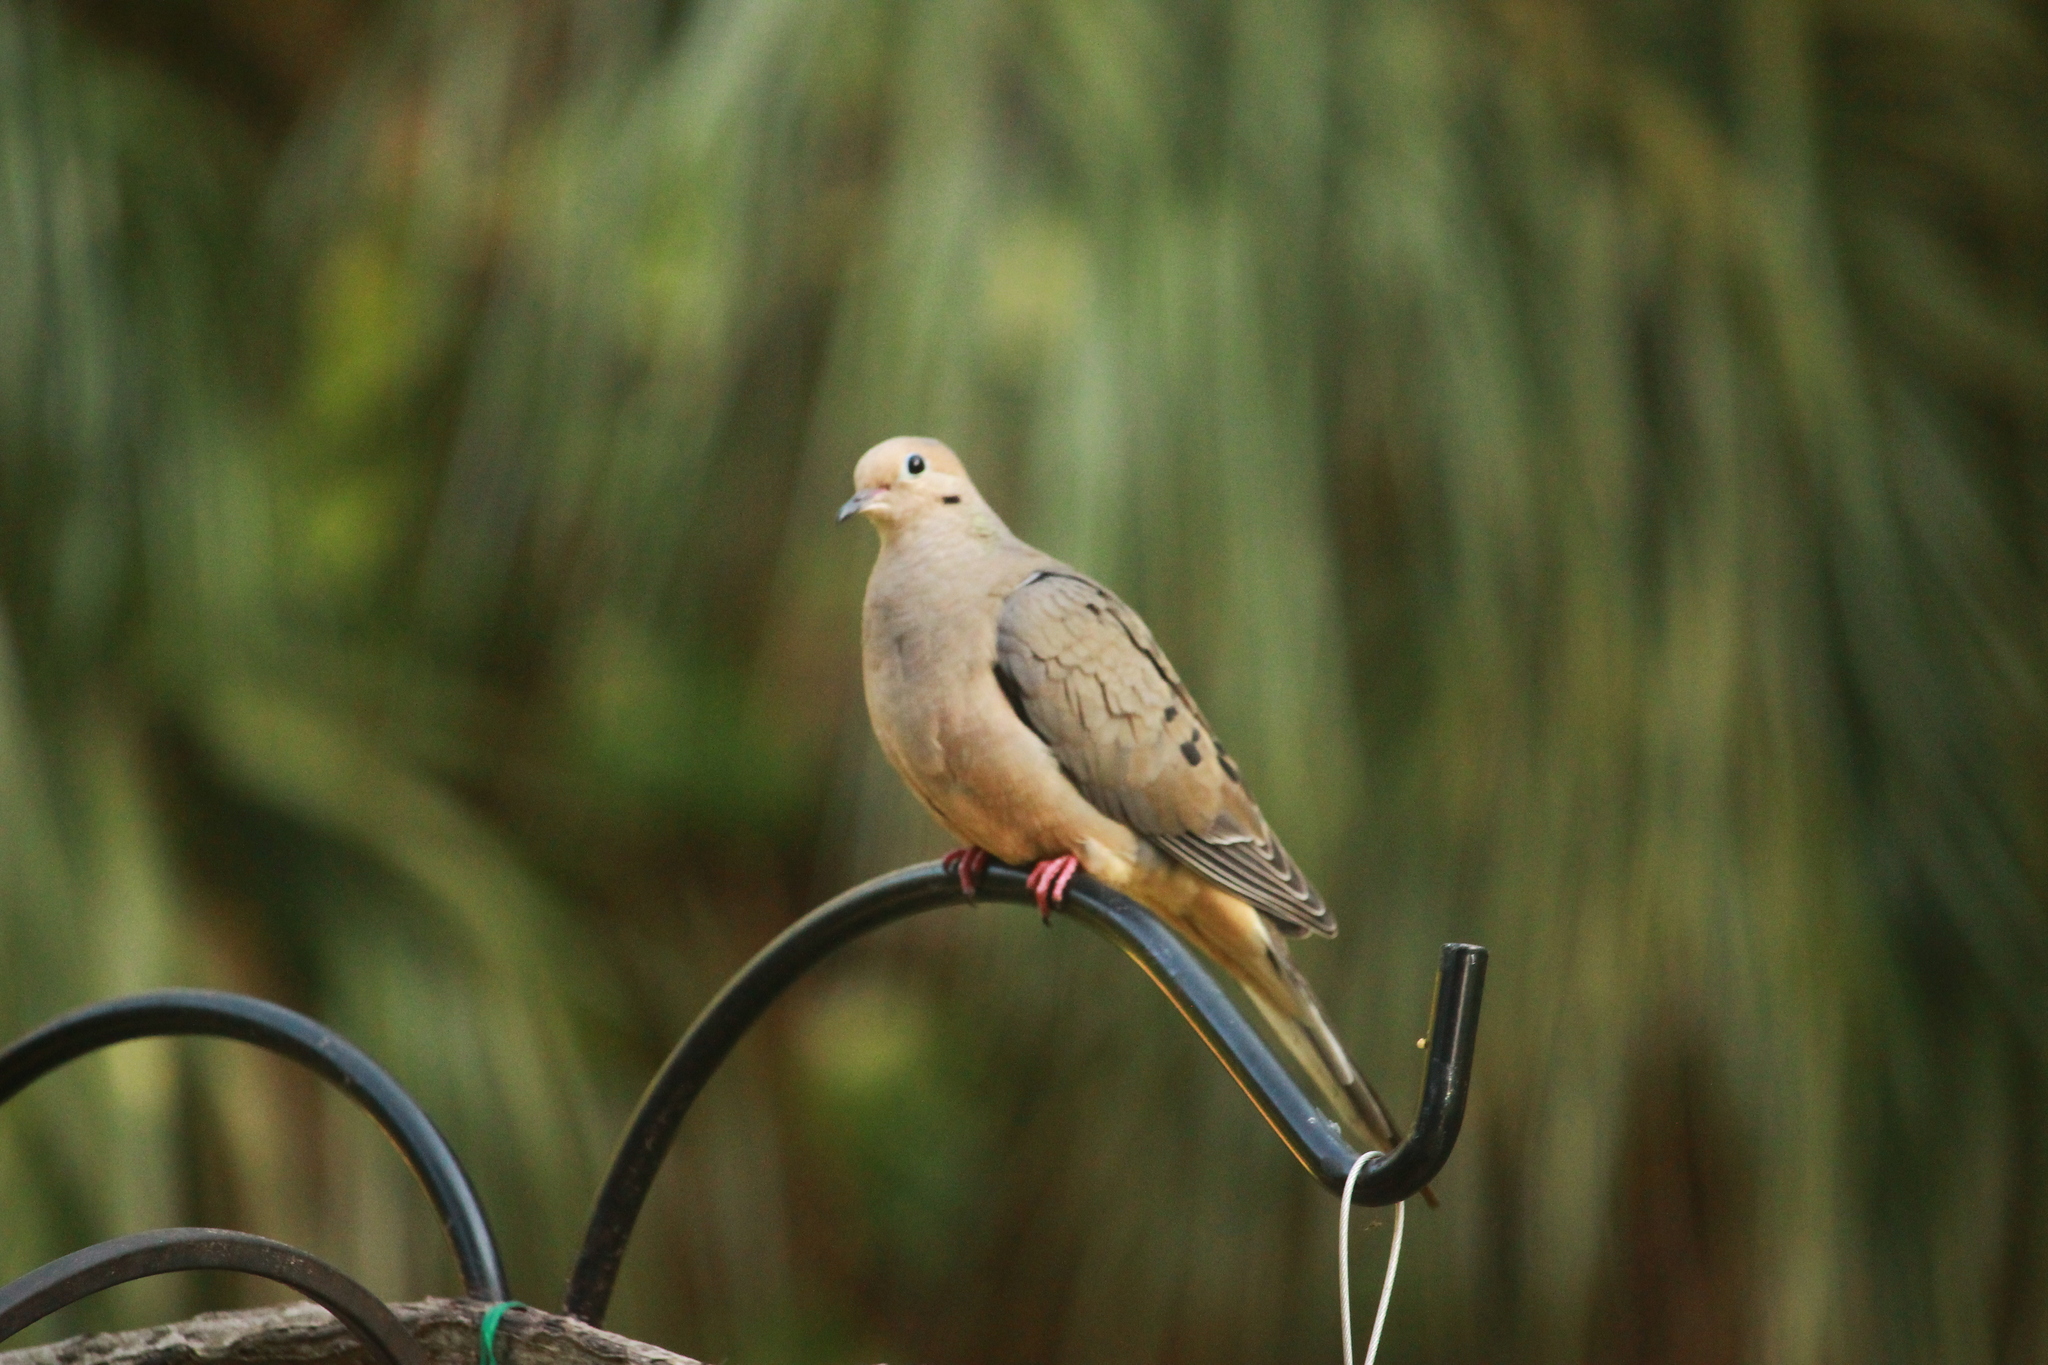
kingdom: Animalia
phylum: Chordata
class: Aves
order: Columbiformes
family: Columbidae
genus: Zenaida
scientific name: Zenaida macroura
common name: Mourning dove
